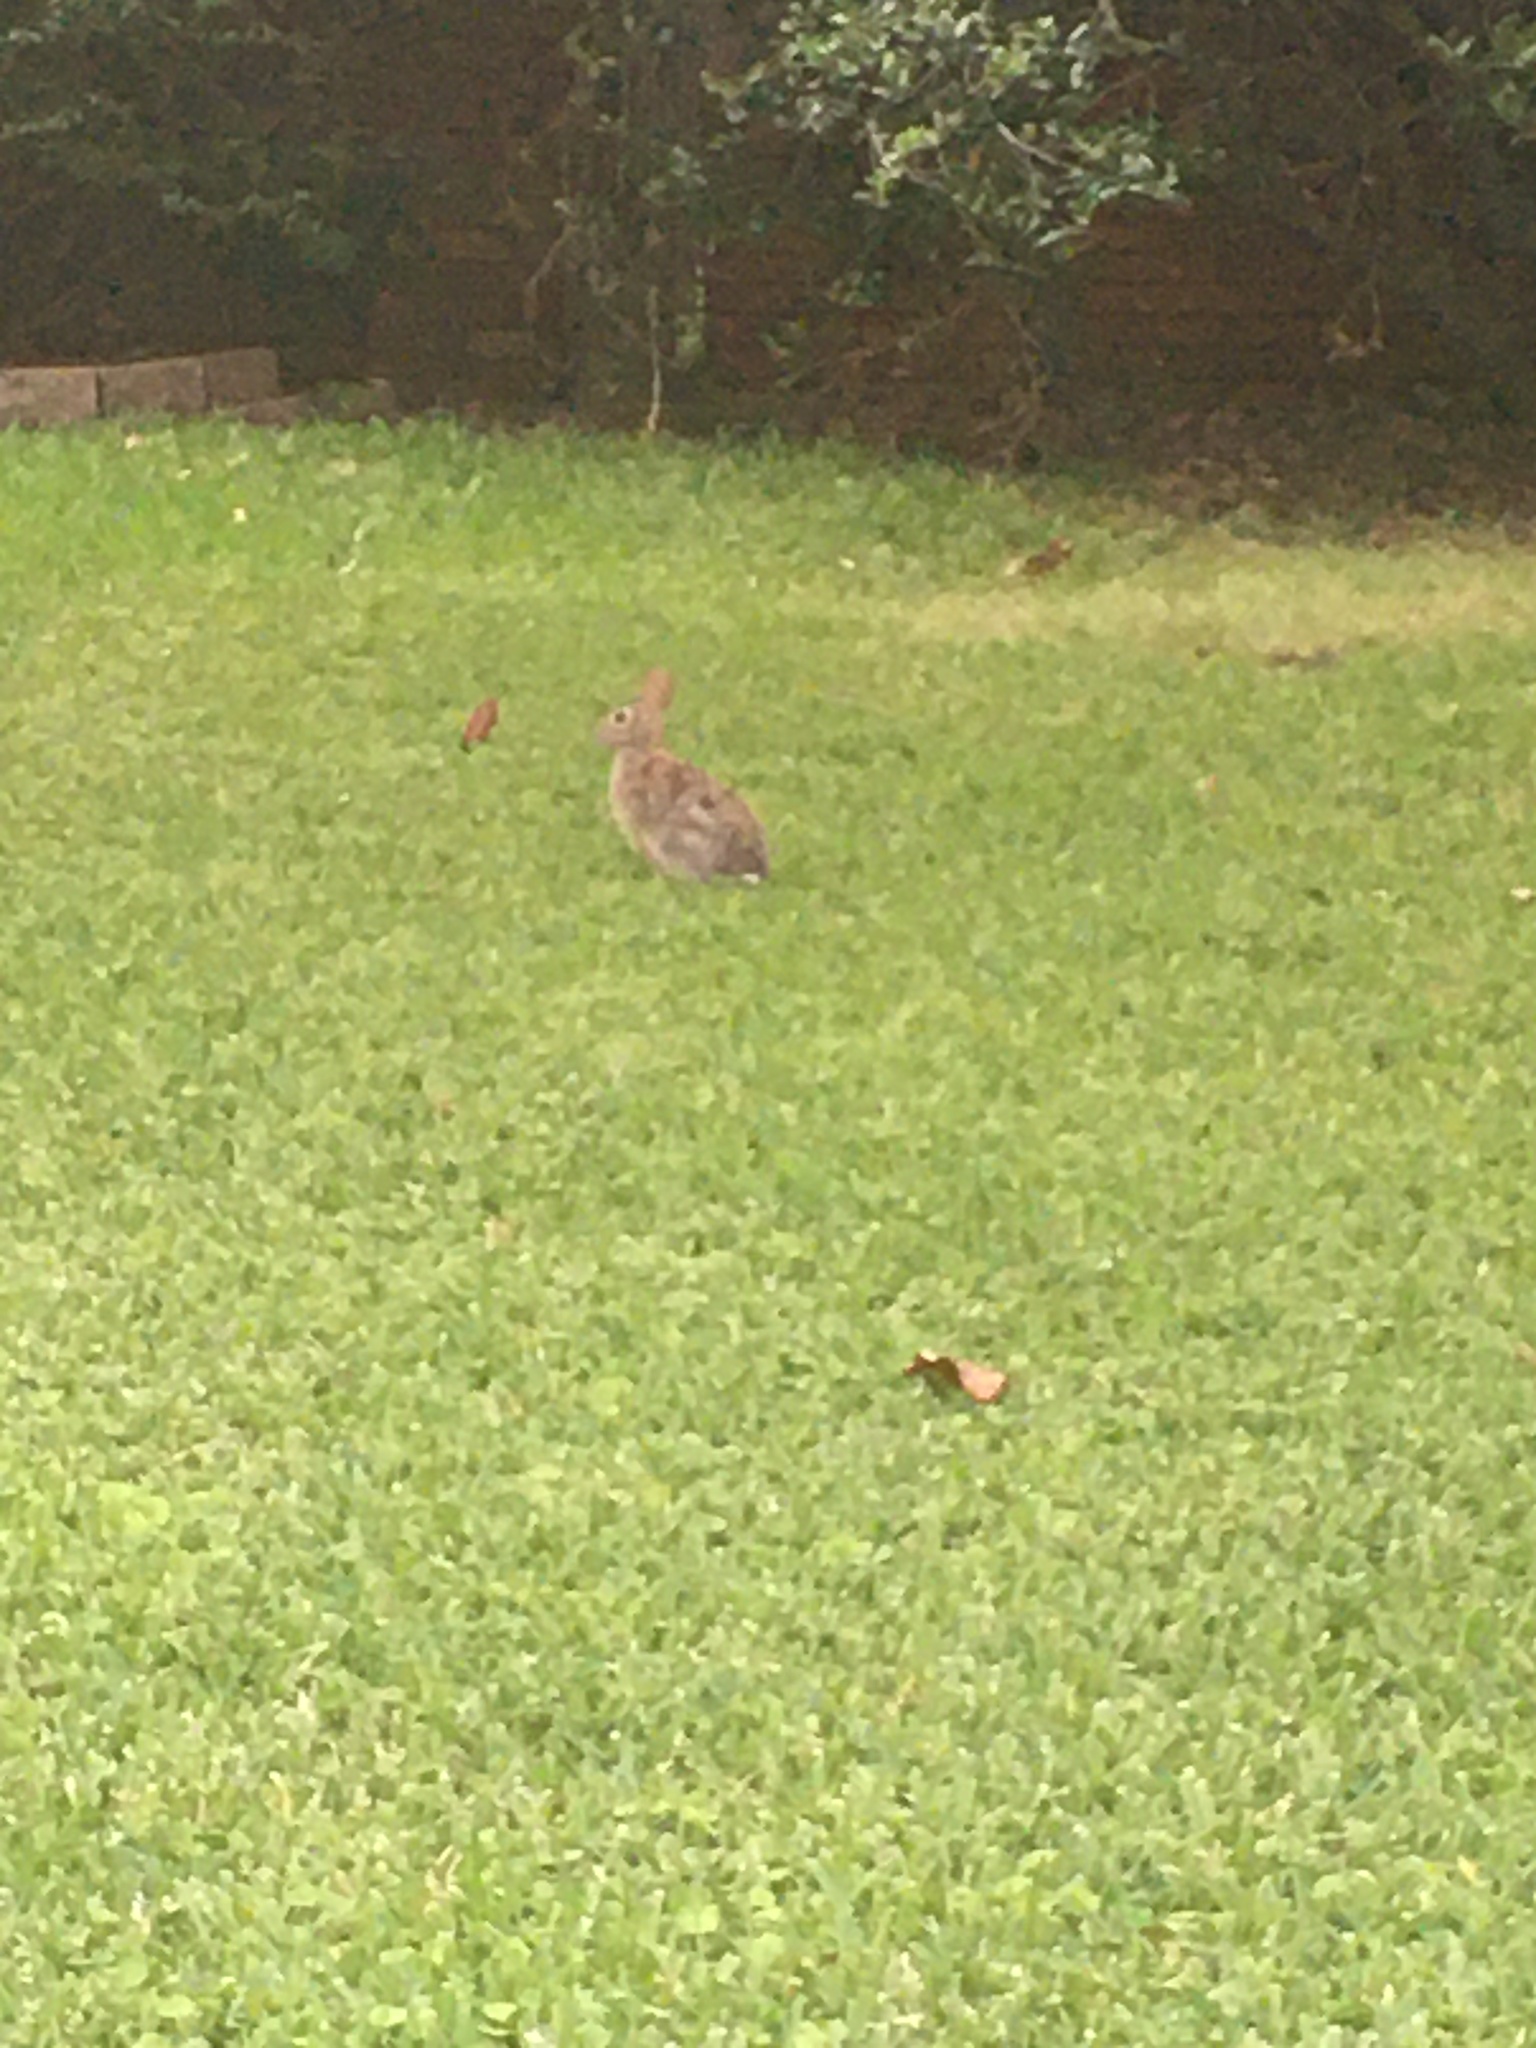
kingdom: Animalia
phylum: Chordata
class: Mammalia
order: Lagomorpha
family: Leporidae
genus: Sylvilagus
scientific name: Sylvilagus floridanus
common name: Eastern cottontail
